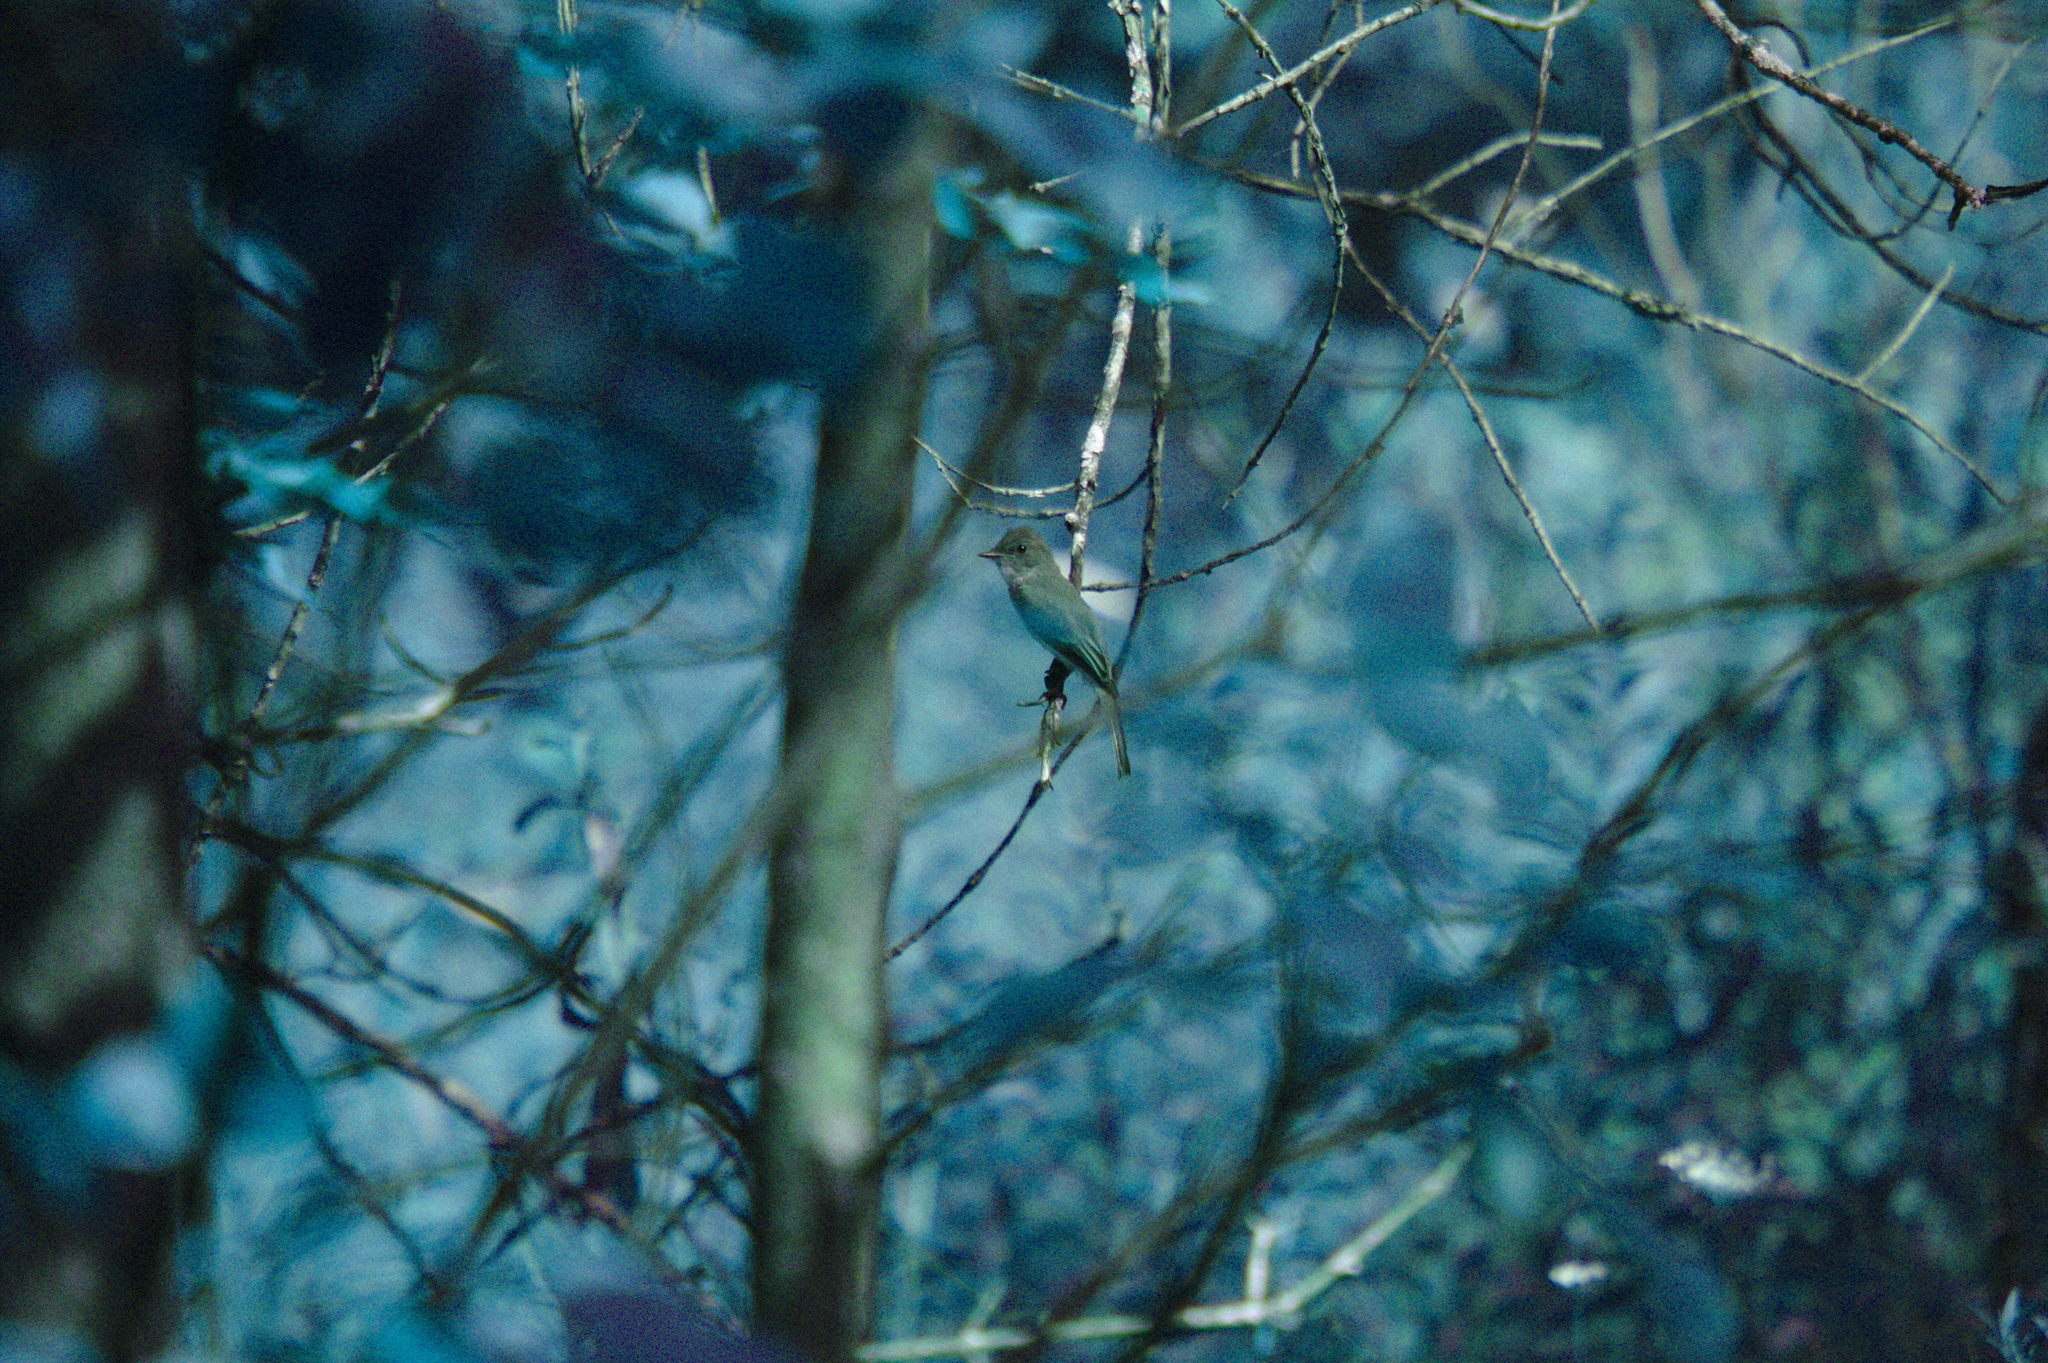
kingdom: Animalia
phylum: Chordata
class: Aves
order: Passeriformes
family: Tyrannidae
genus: Sayornis
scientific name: Sayornis phoebe
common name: Eastern phoebe
